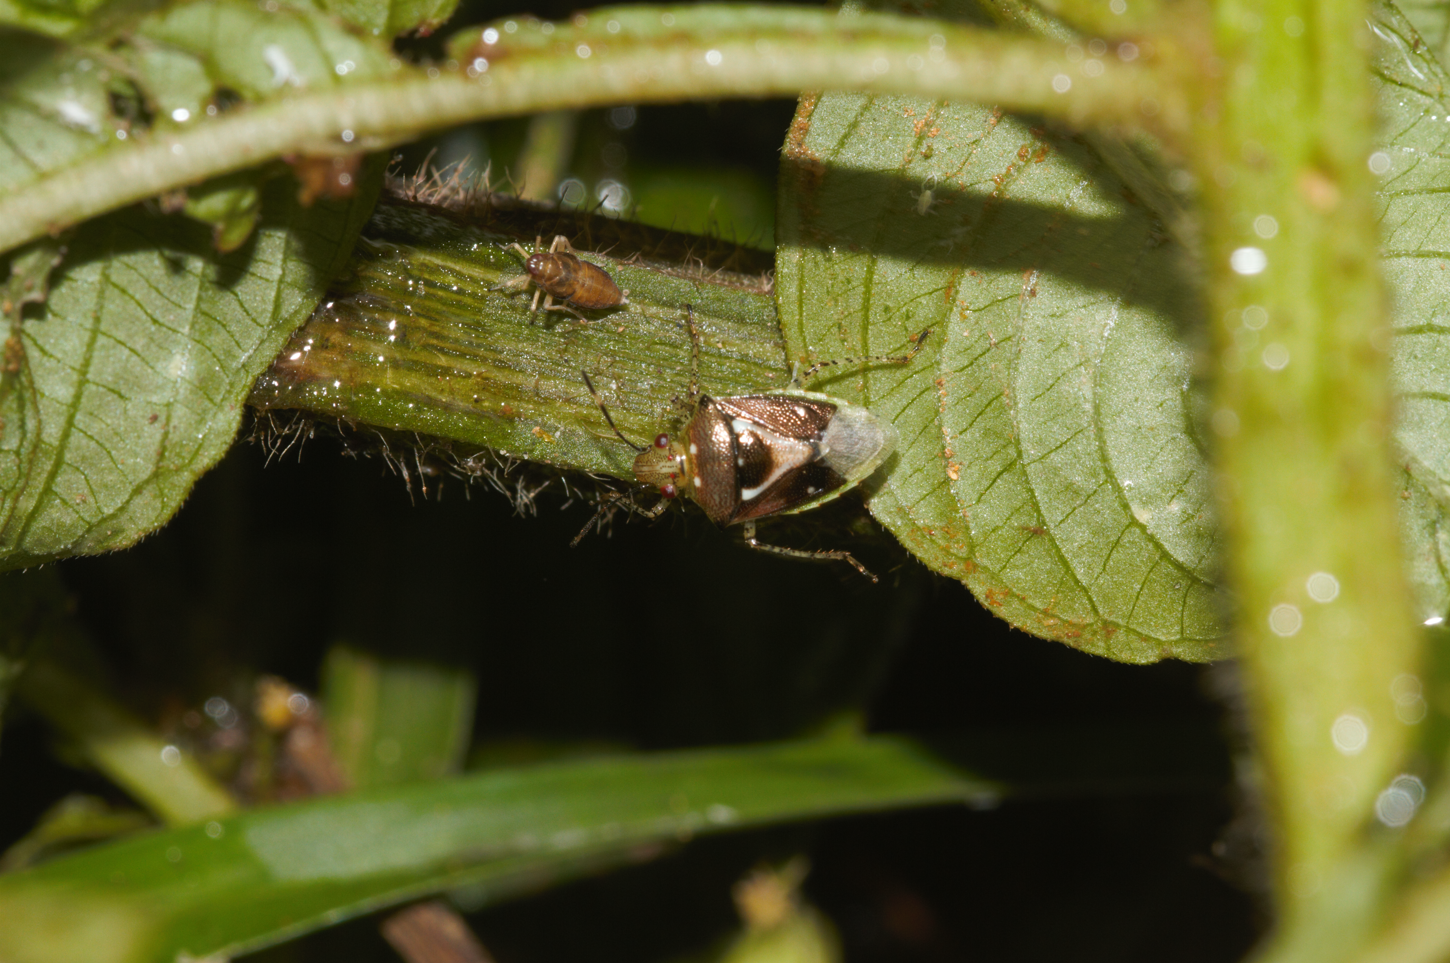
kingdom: Animalia
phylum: Arthropoda
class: Insecta
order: Hemiptera
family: Pentatomidae
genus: Mormidea
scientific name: Mormidea ypsilon
